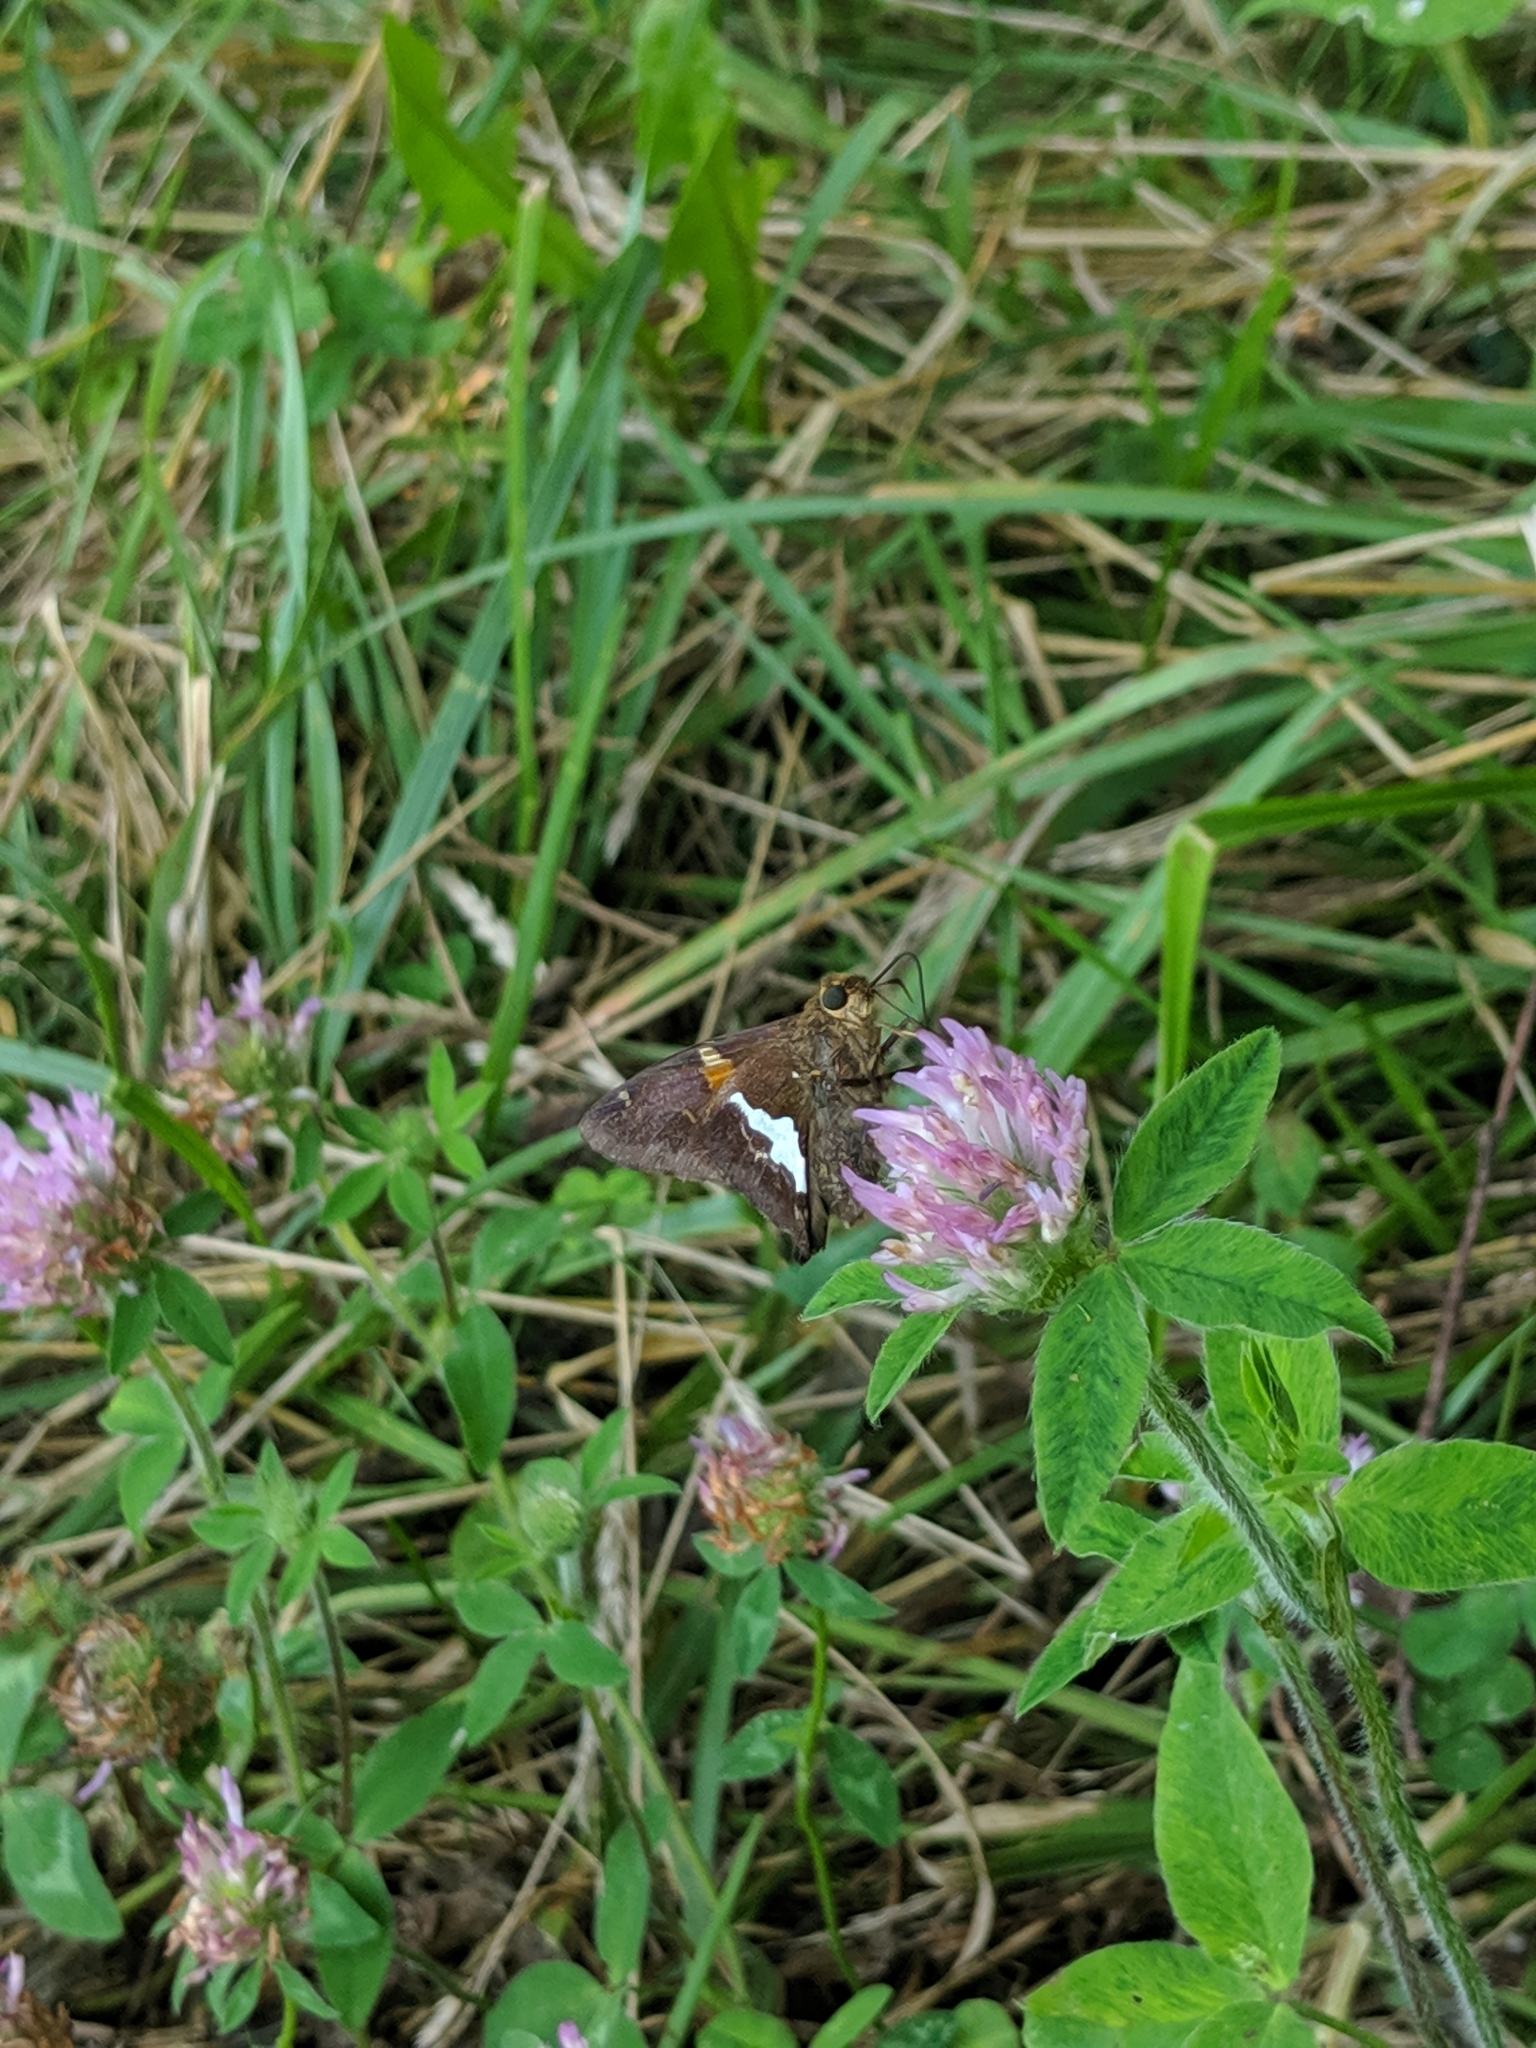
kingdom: Animalia
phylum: Arthropoda
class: Insecta
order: Lepidoptera
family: Hesperiidae
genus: Epargyreus
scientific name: Epargyreus clarus
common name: Silver-spotted skipper
